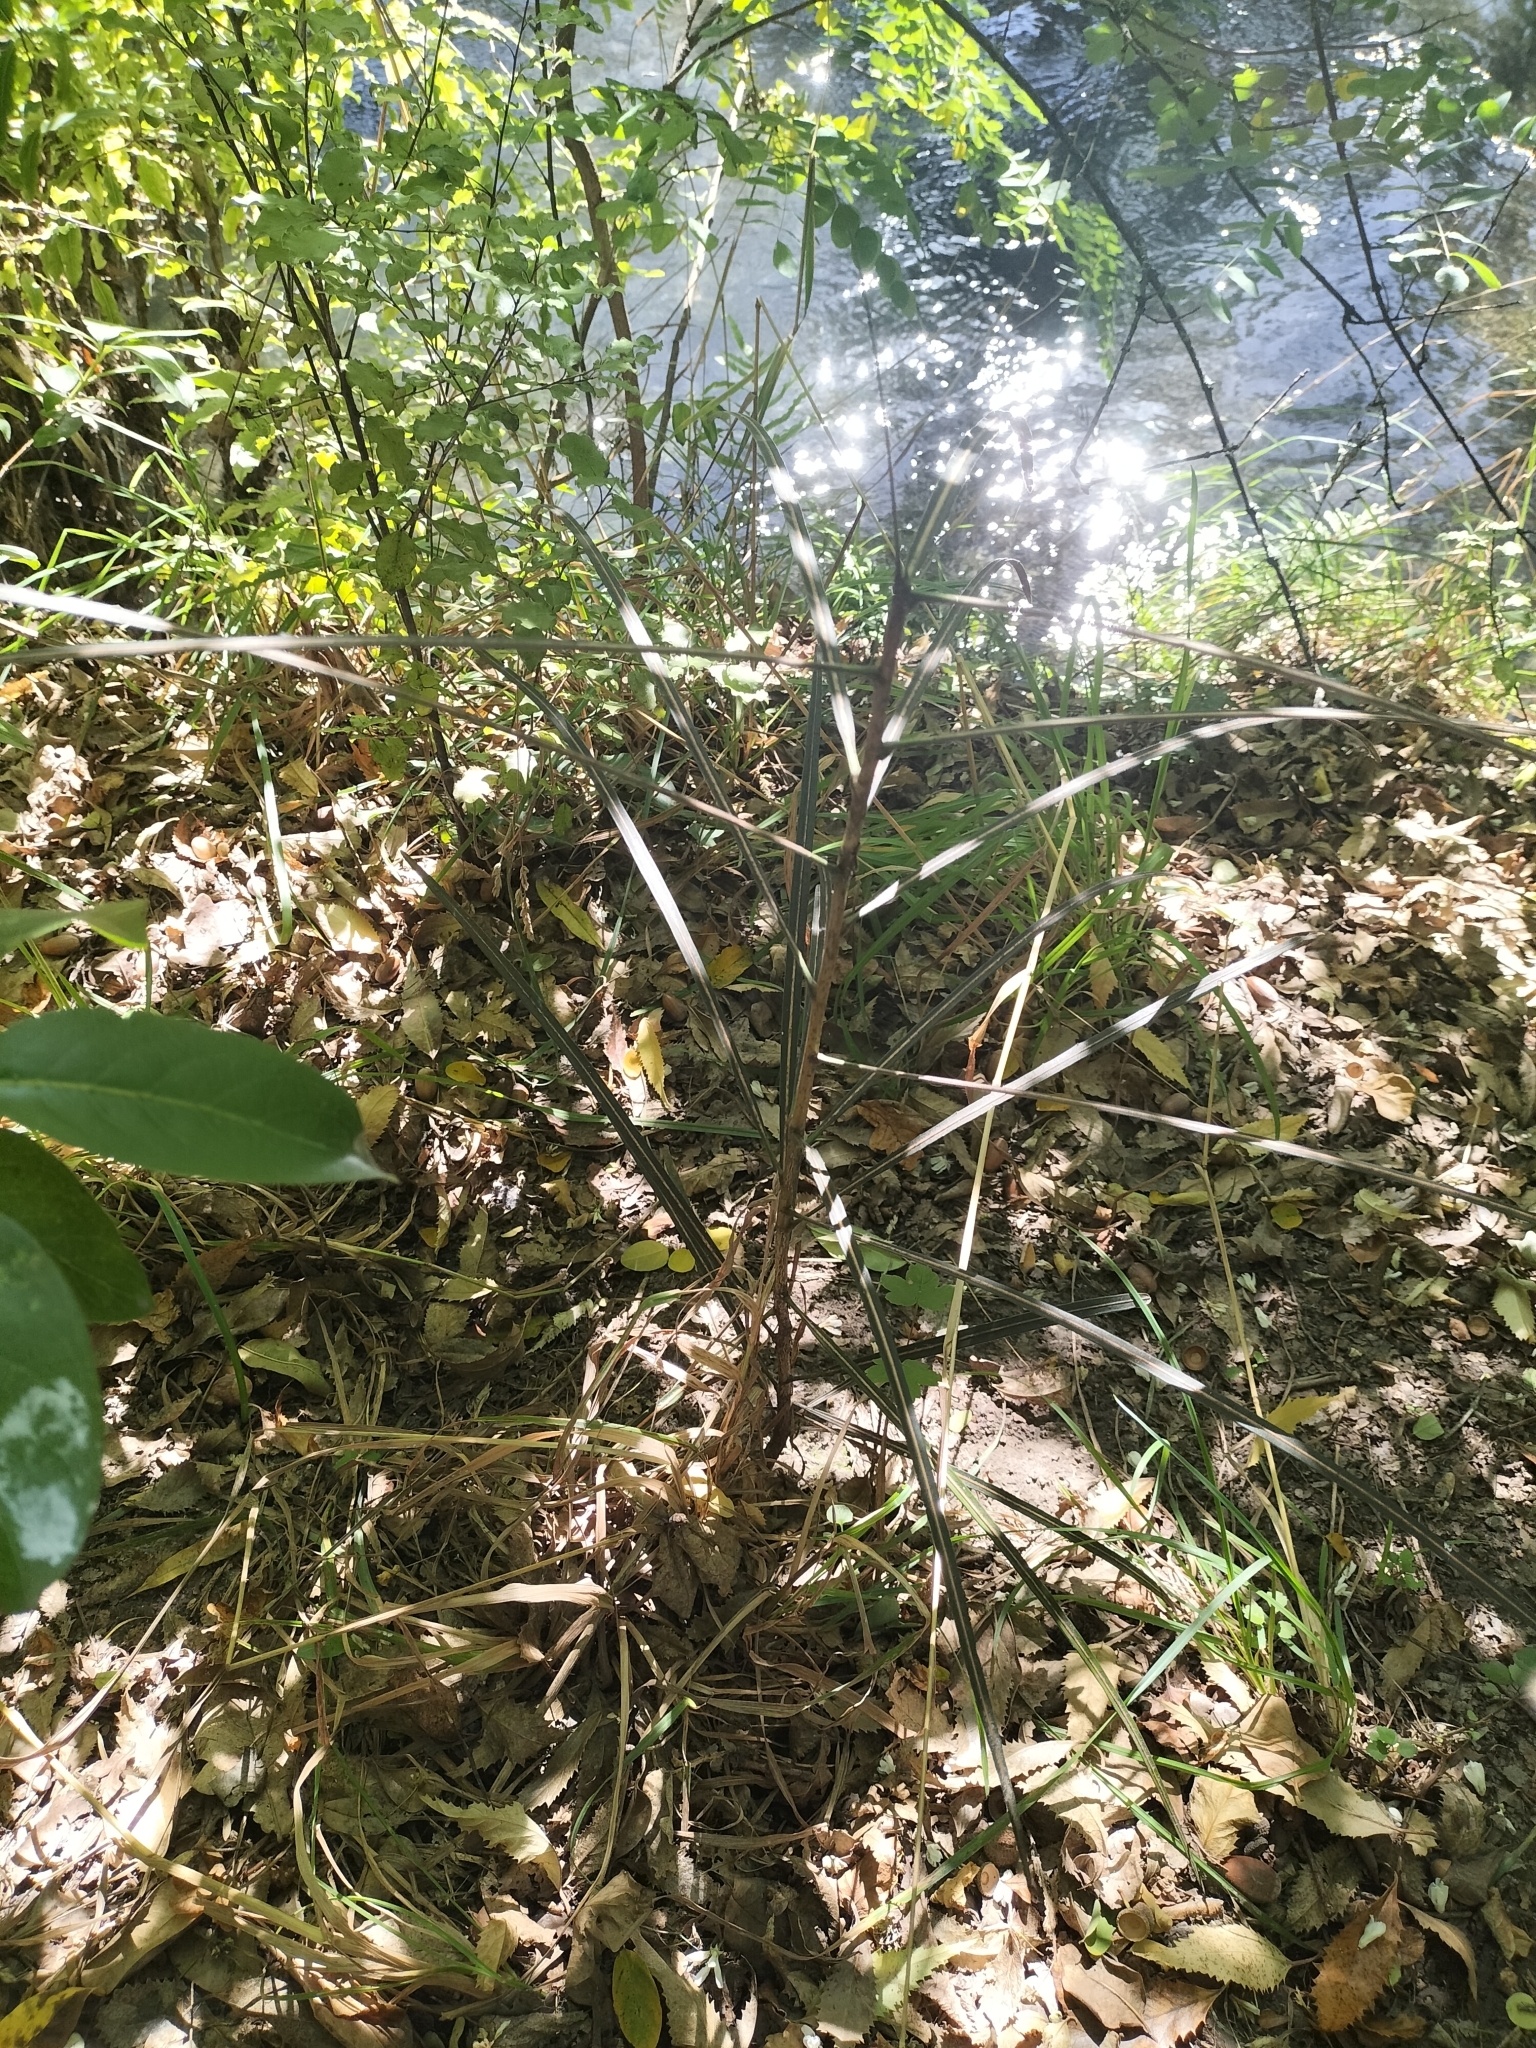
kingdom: Plantae
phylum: Tracheophyta
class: Magnoliopsida
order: Apiales
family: Araliaceae
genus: Pseudopanax
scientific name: Pseudopanax crassifolius
